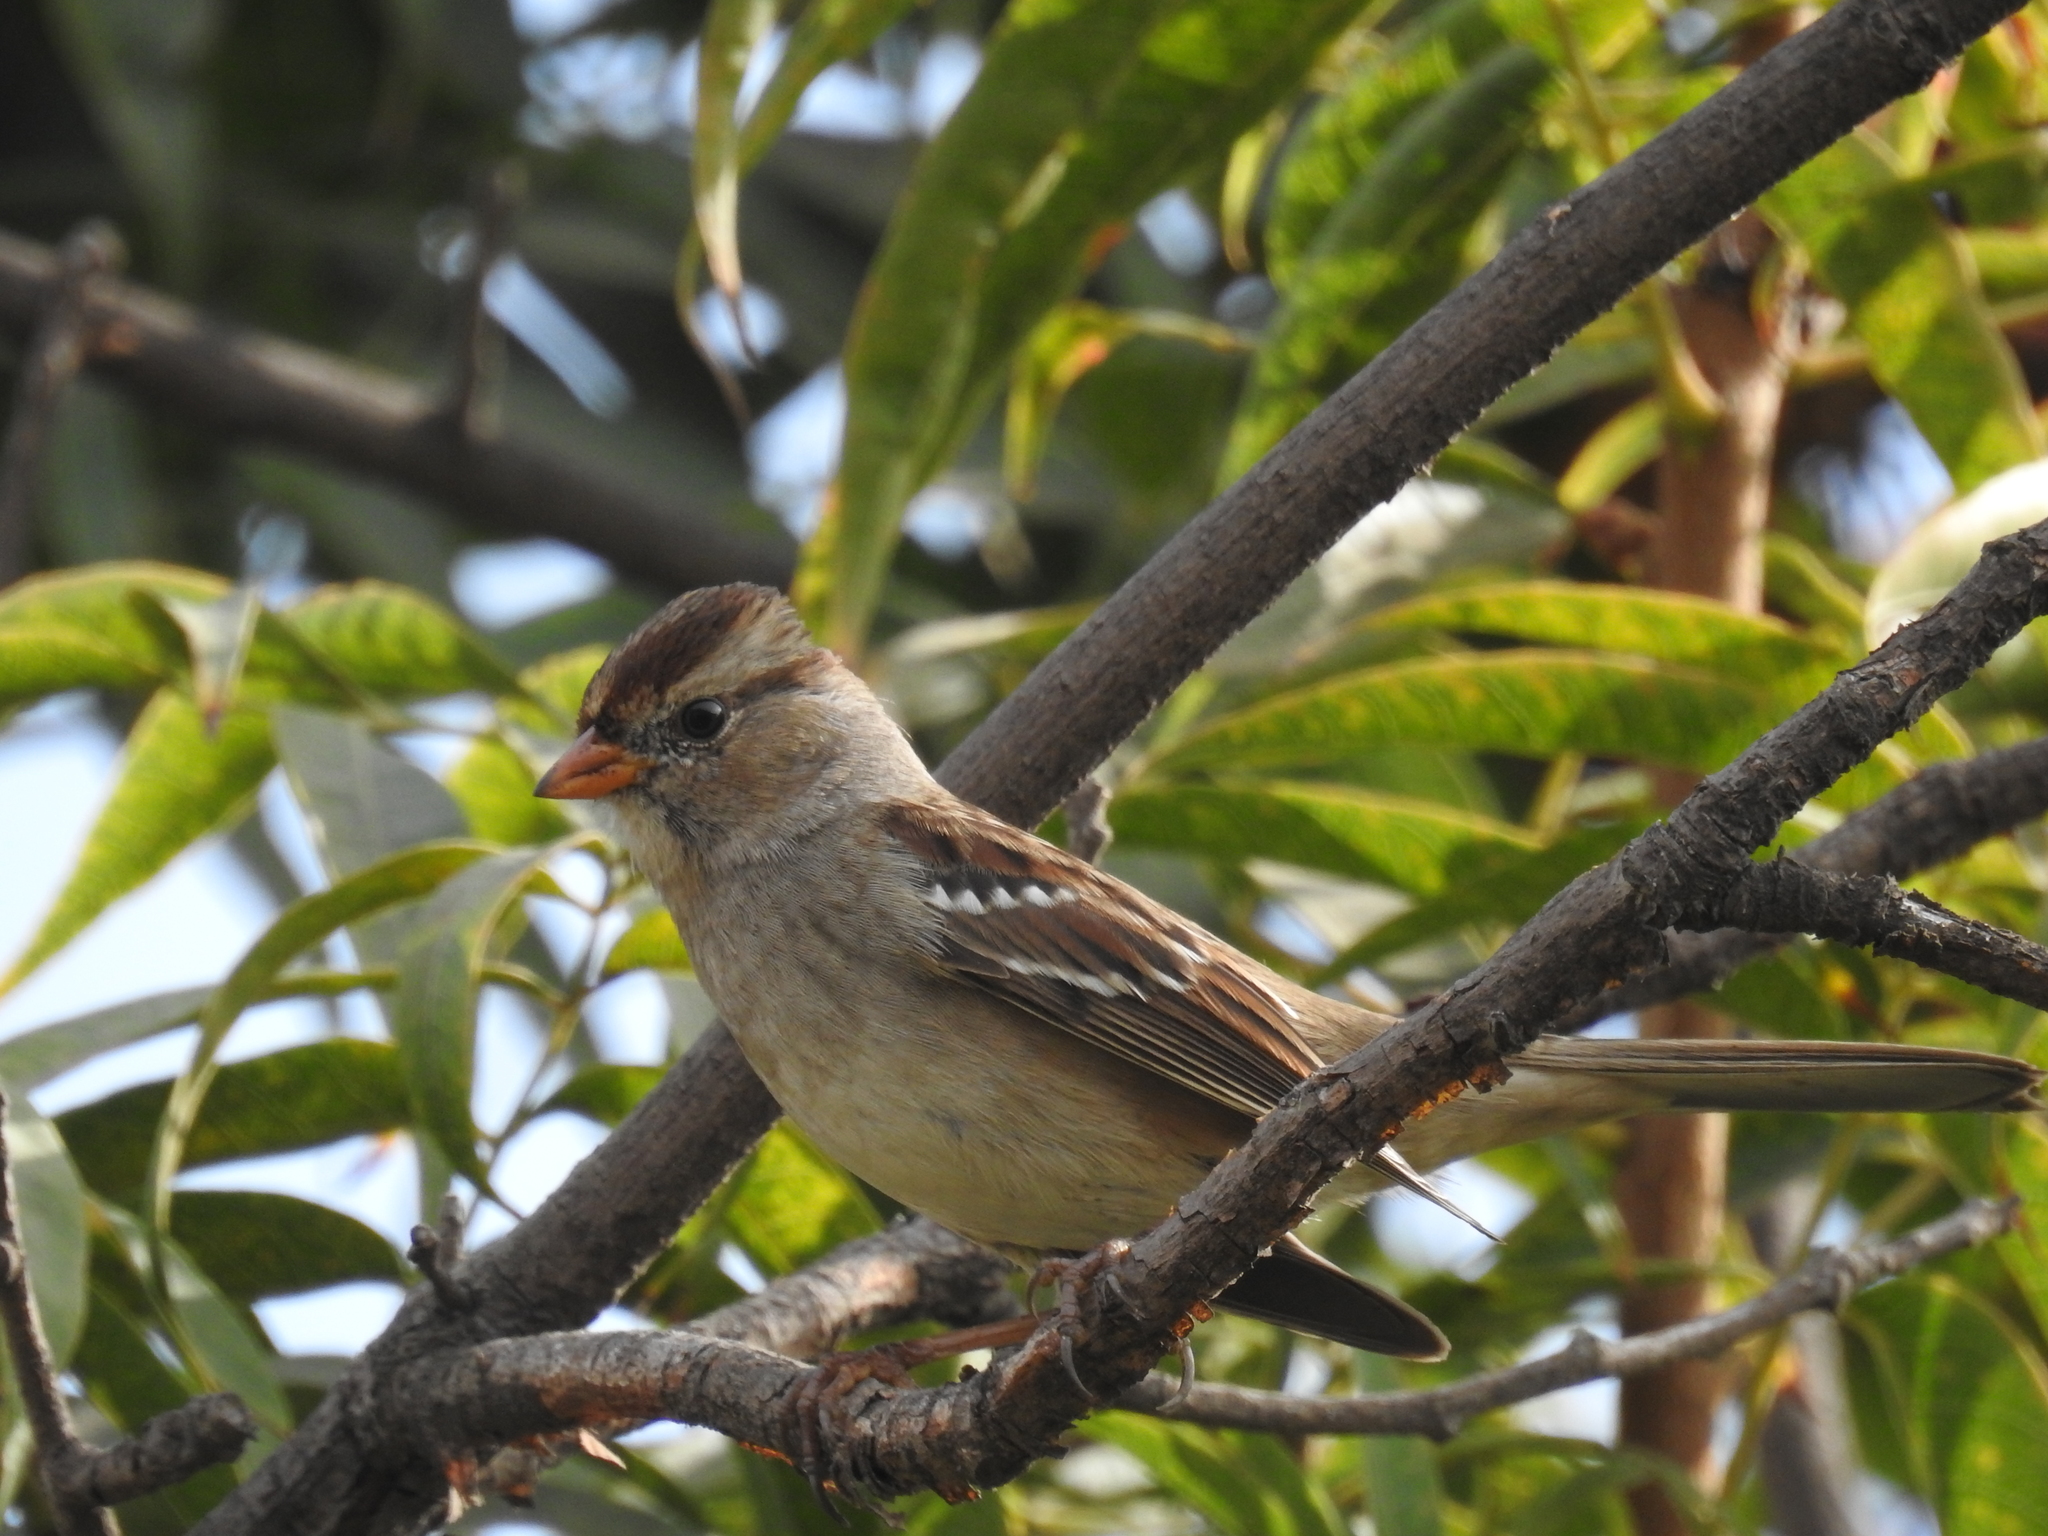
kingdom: Animalia
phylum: Chordata
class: Aves
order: Passeriformes
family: Passerellidae
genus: Zonotrichia
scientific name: Zonotrichia leucophrys
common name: White-crowned sparrow
